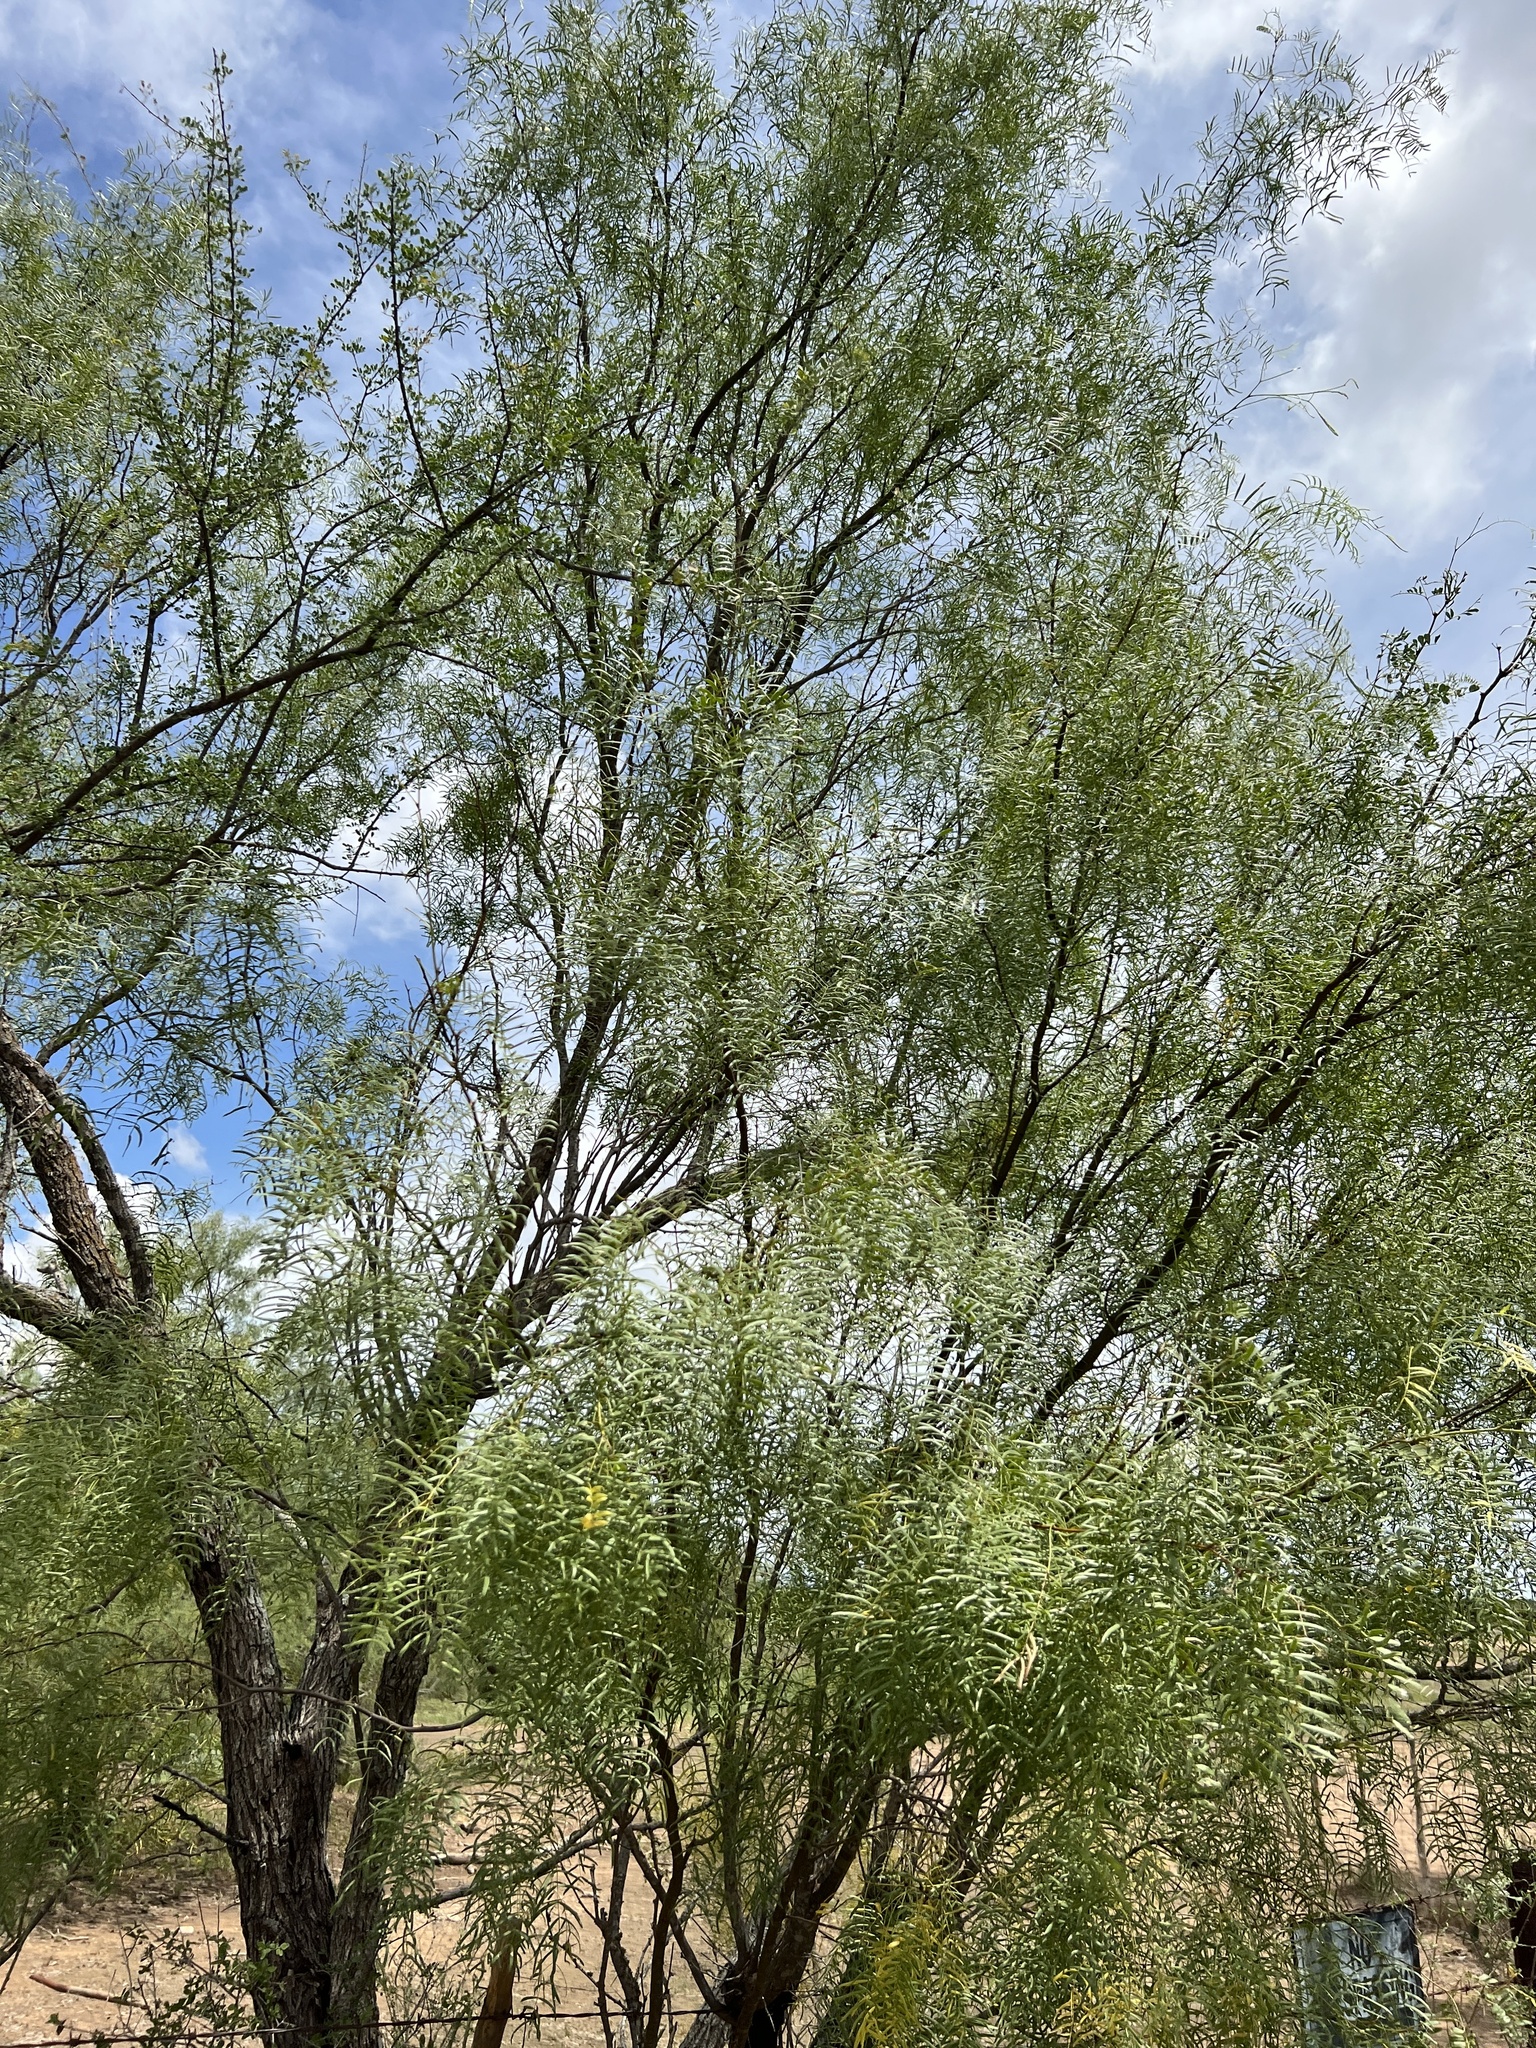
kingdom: Plantae
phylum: Tracheophyta
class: Magnoliopsida
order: Fabales
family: Fabaceae
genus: Prosopis
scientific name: Prosopis glandulosa
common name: Honey mesquite
